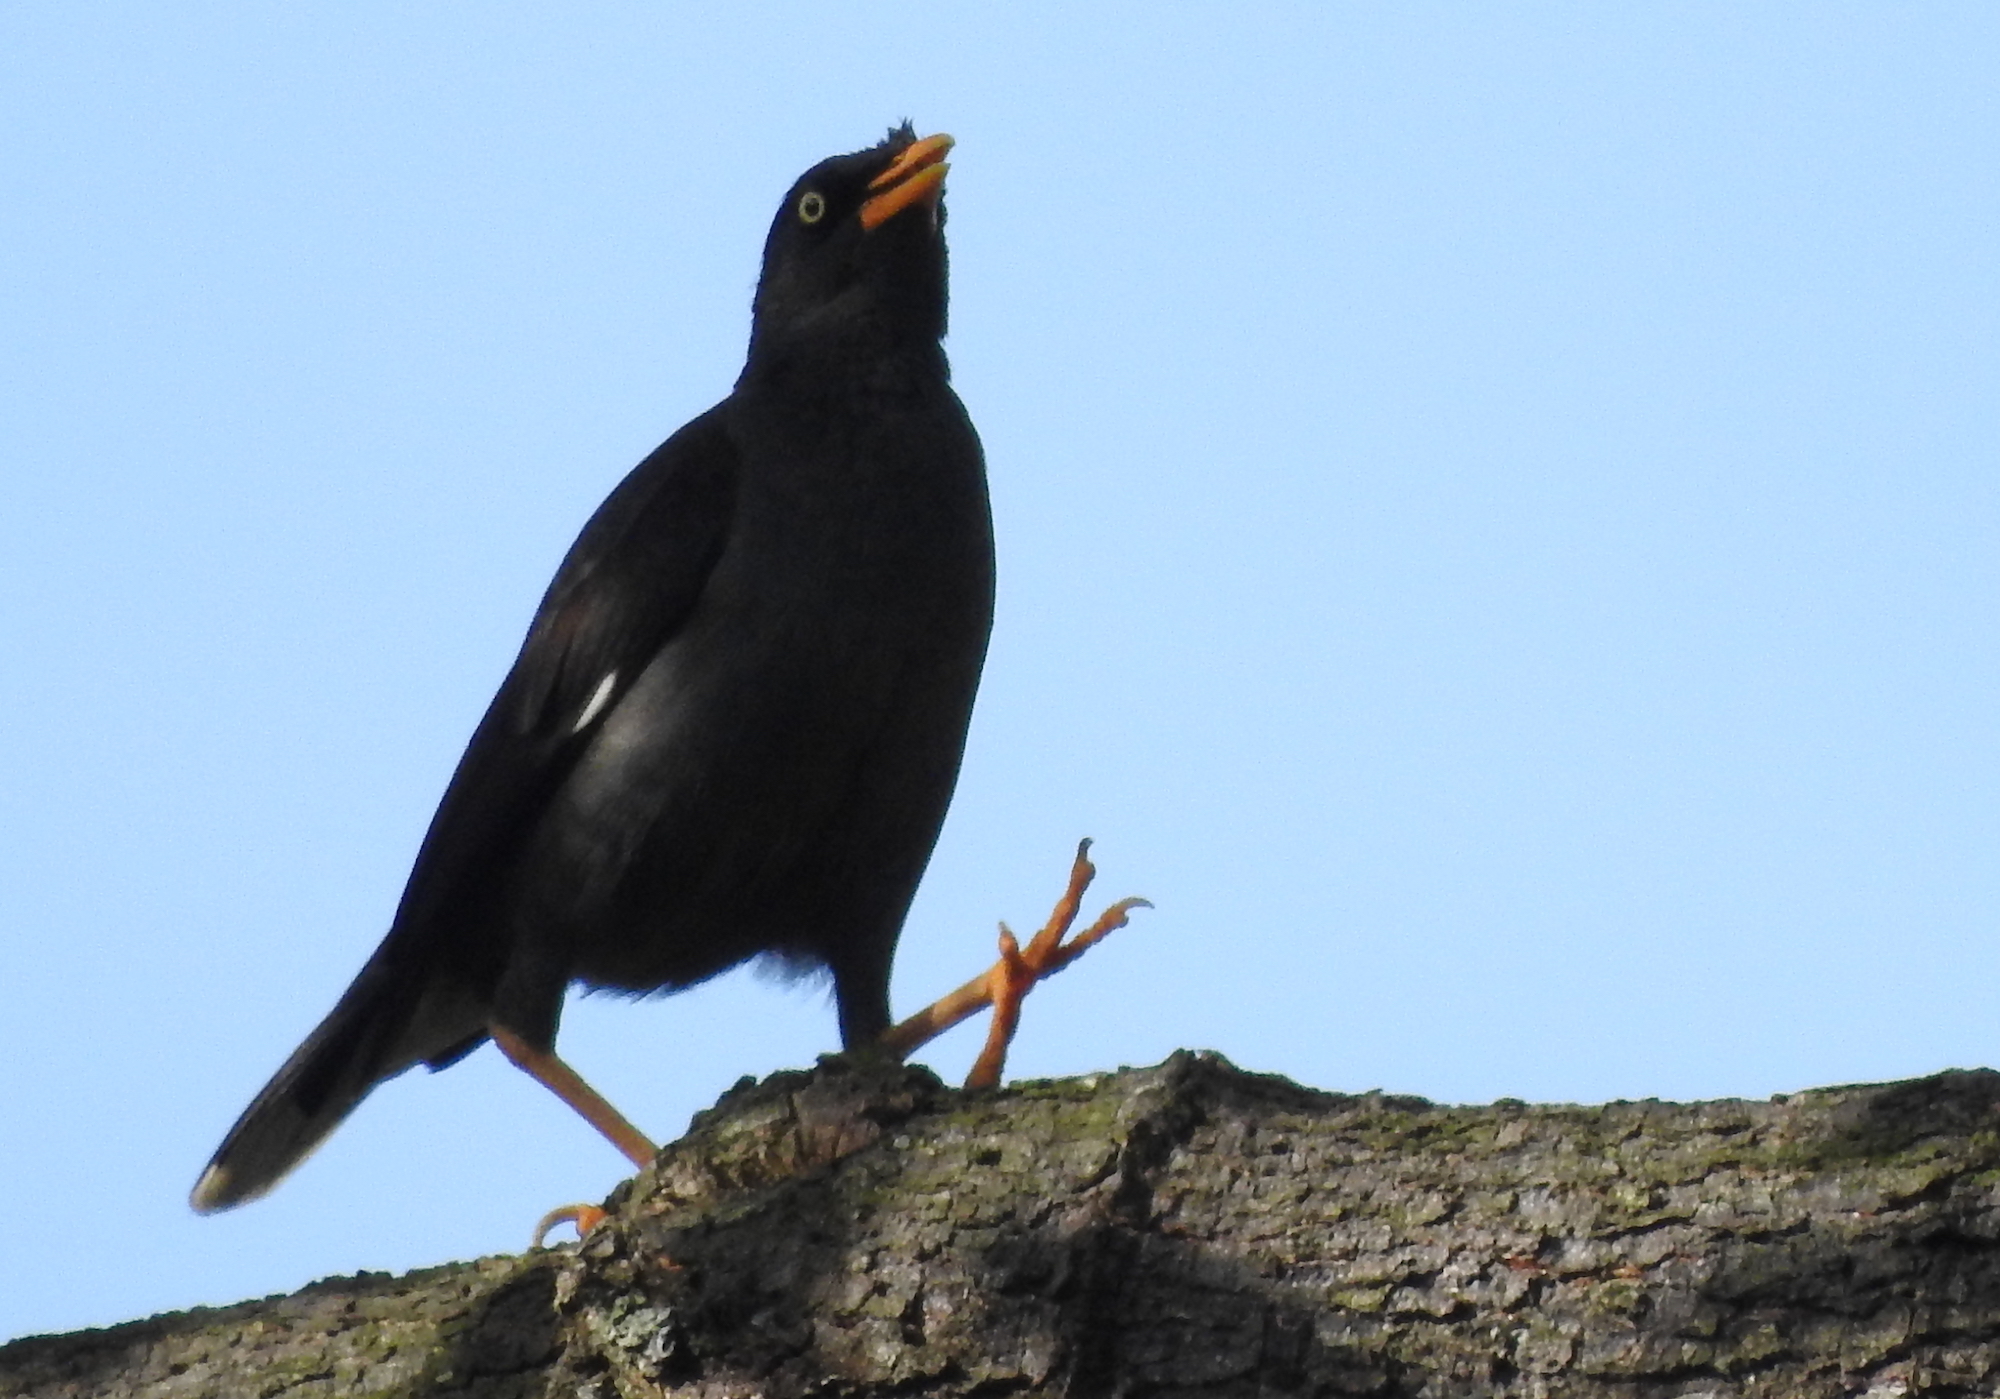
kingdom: Animalia
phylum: Chordata
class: Aves
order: Passeriformes
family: Sturnidae
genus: Acridotheres
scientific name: Acridotheres javanicus
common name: Javan myna
